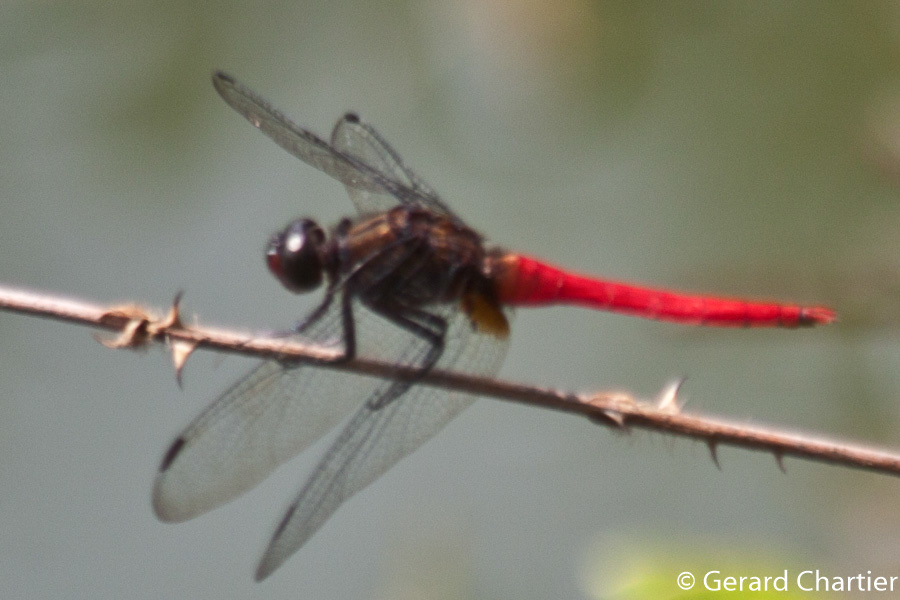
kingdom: Animalia
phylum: Arthropoda
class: Insecta
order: Odonata
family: Libellulidae
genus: Orthetrum
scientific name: Orthetrum chrysis
